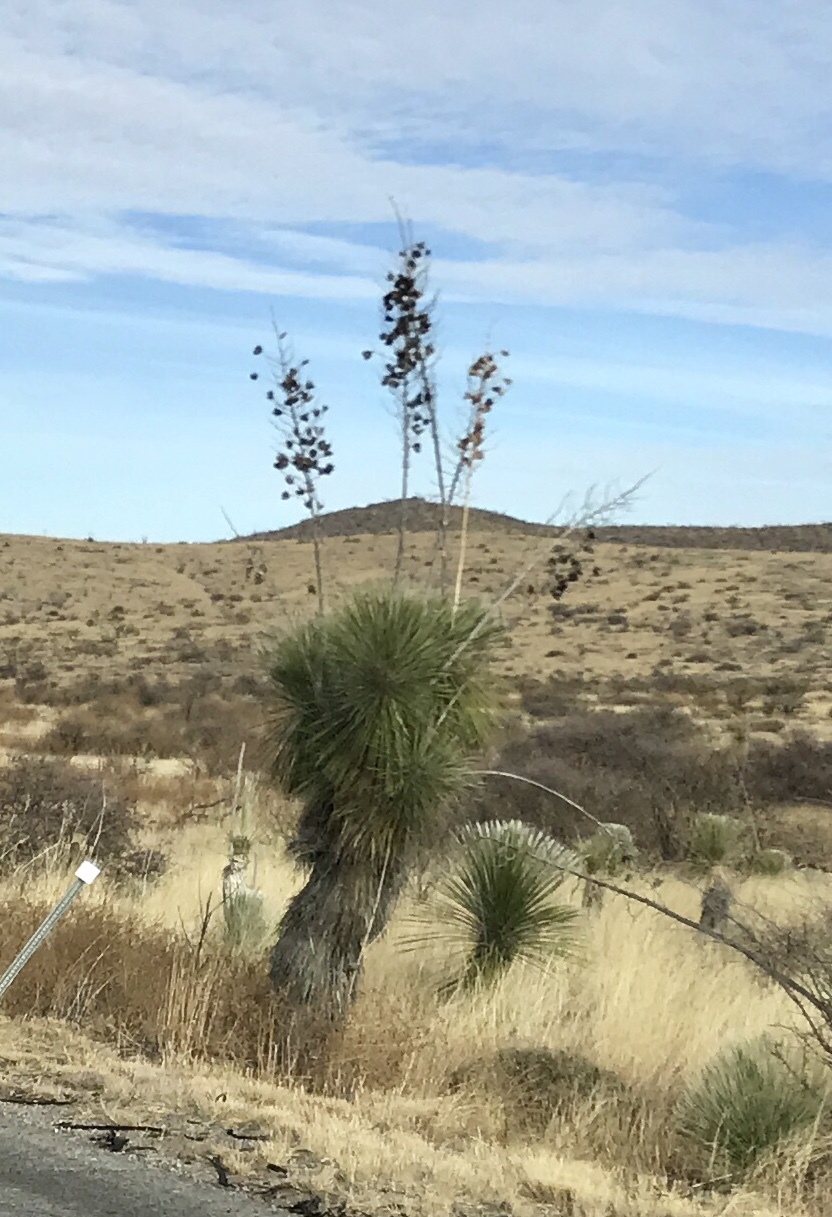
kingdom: Plantae
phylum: Tracheophyta
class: Liliopsida
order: Asparagales
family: Asparagaceae
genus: Yucca
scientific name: Yucca elata
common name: Palmella
